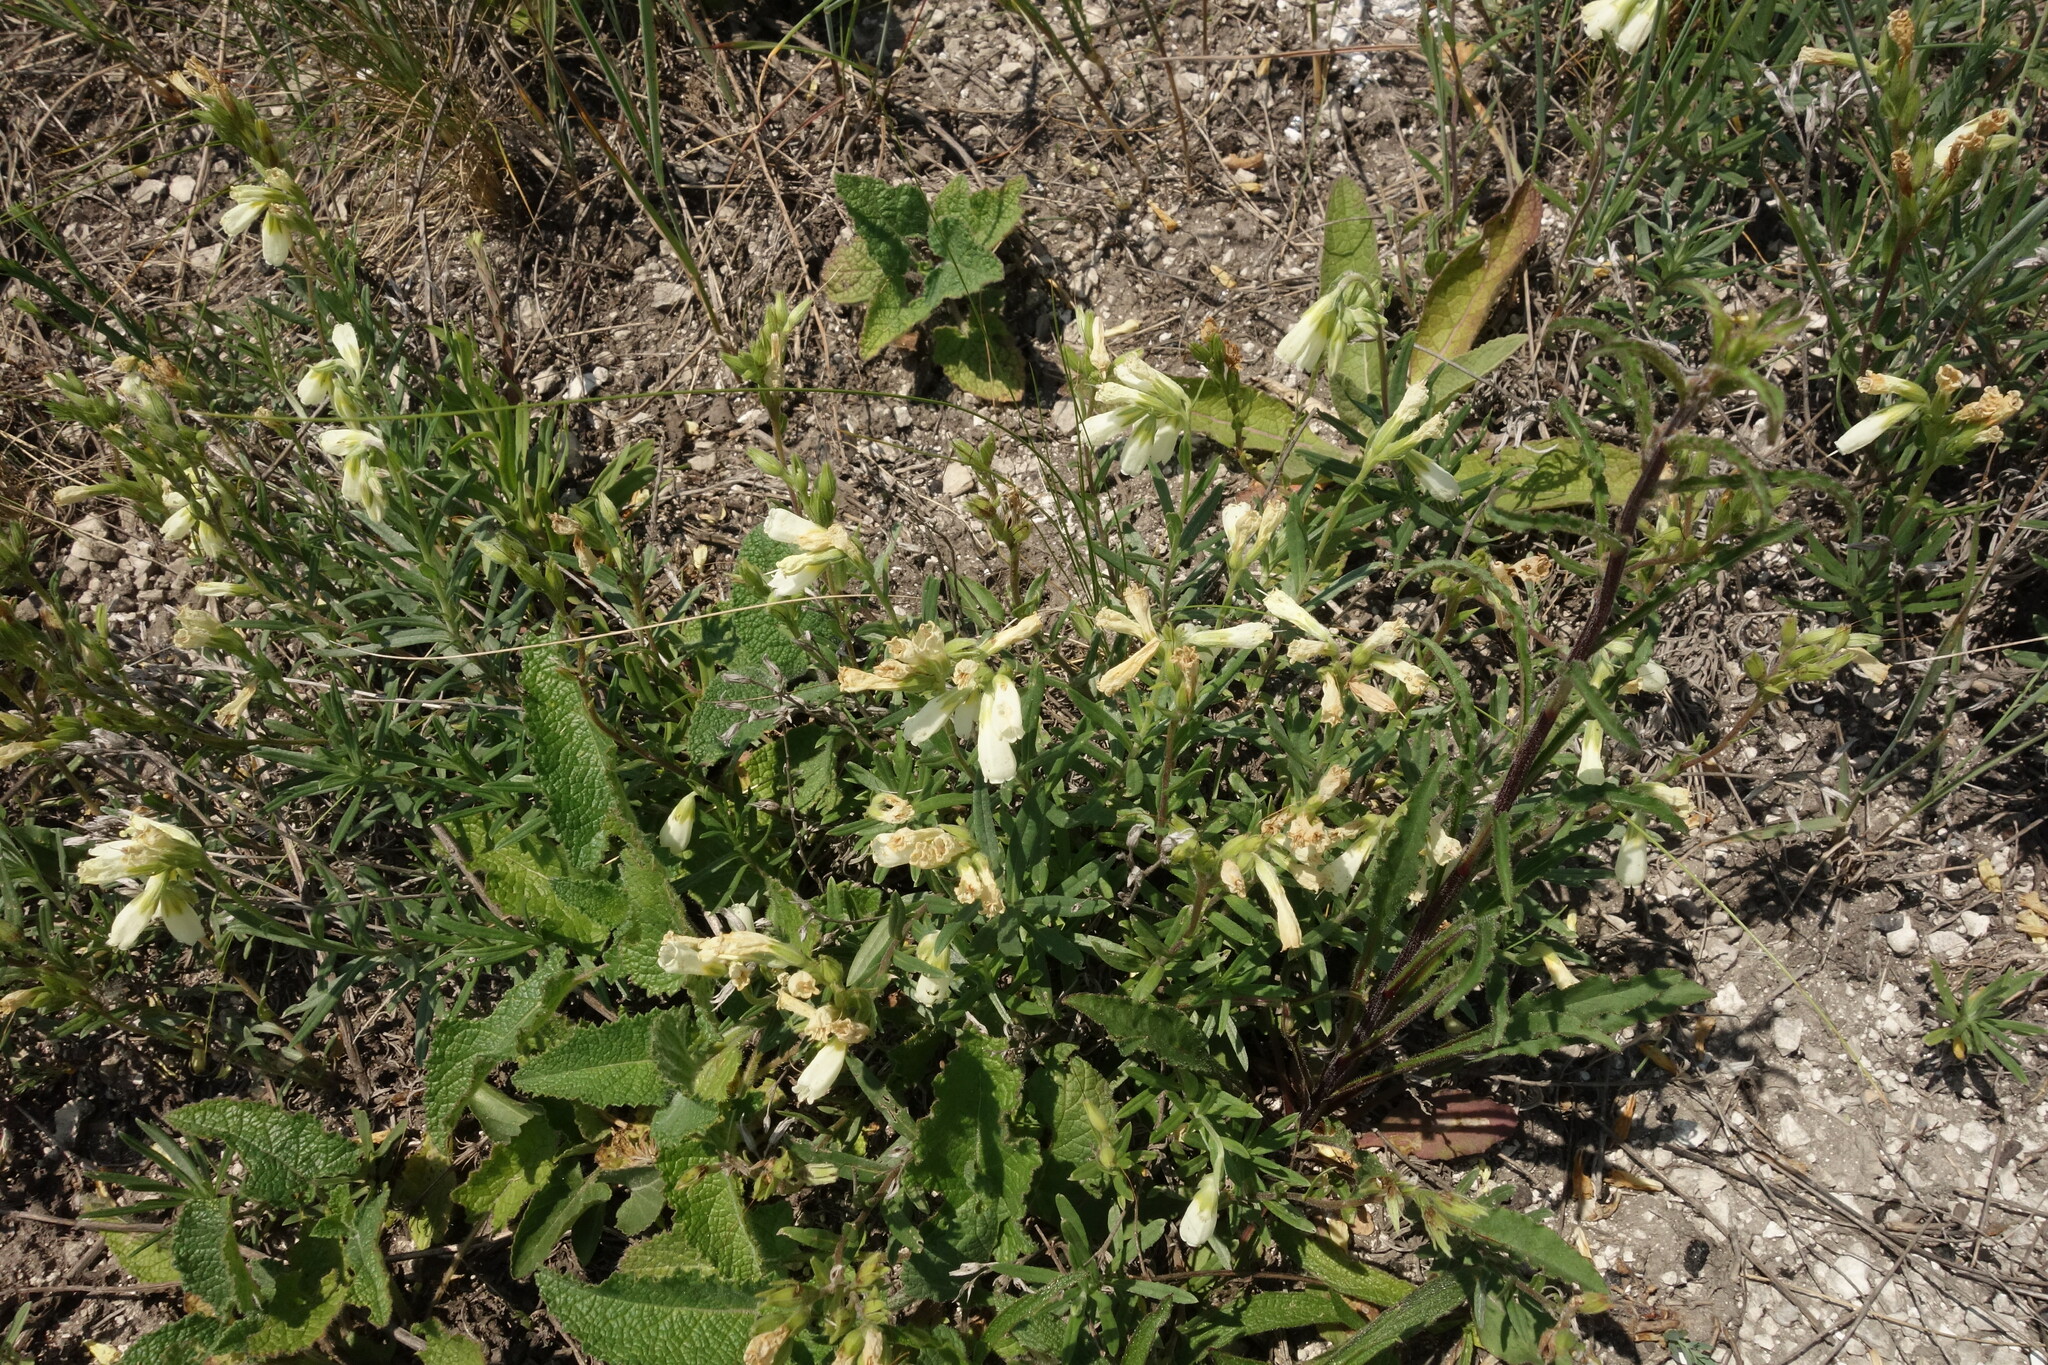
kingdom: Plantae
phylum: Tracheophyta
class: Magnoliopsida
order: Boraginales
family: Boraginaceae
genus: Onosma
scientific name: Onosma simplicissima
